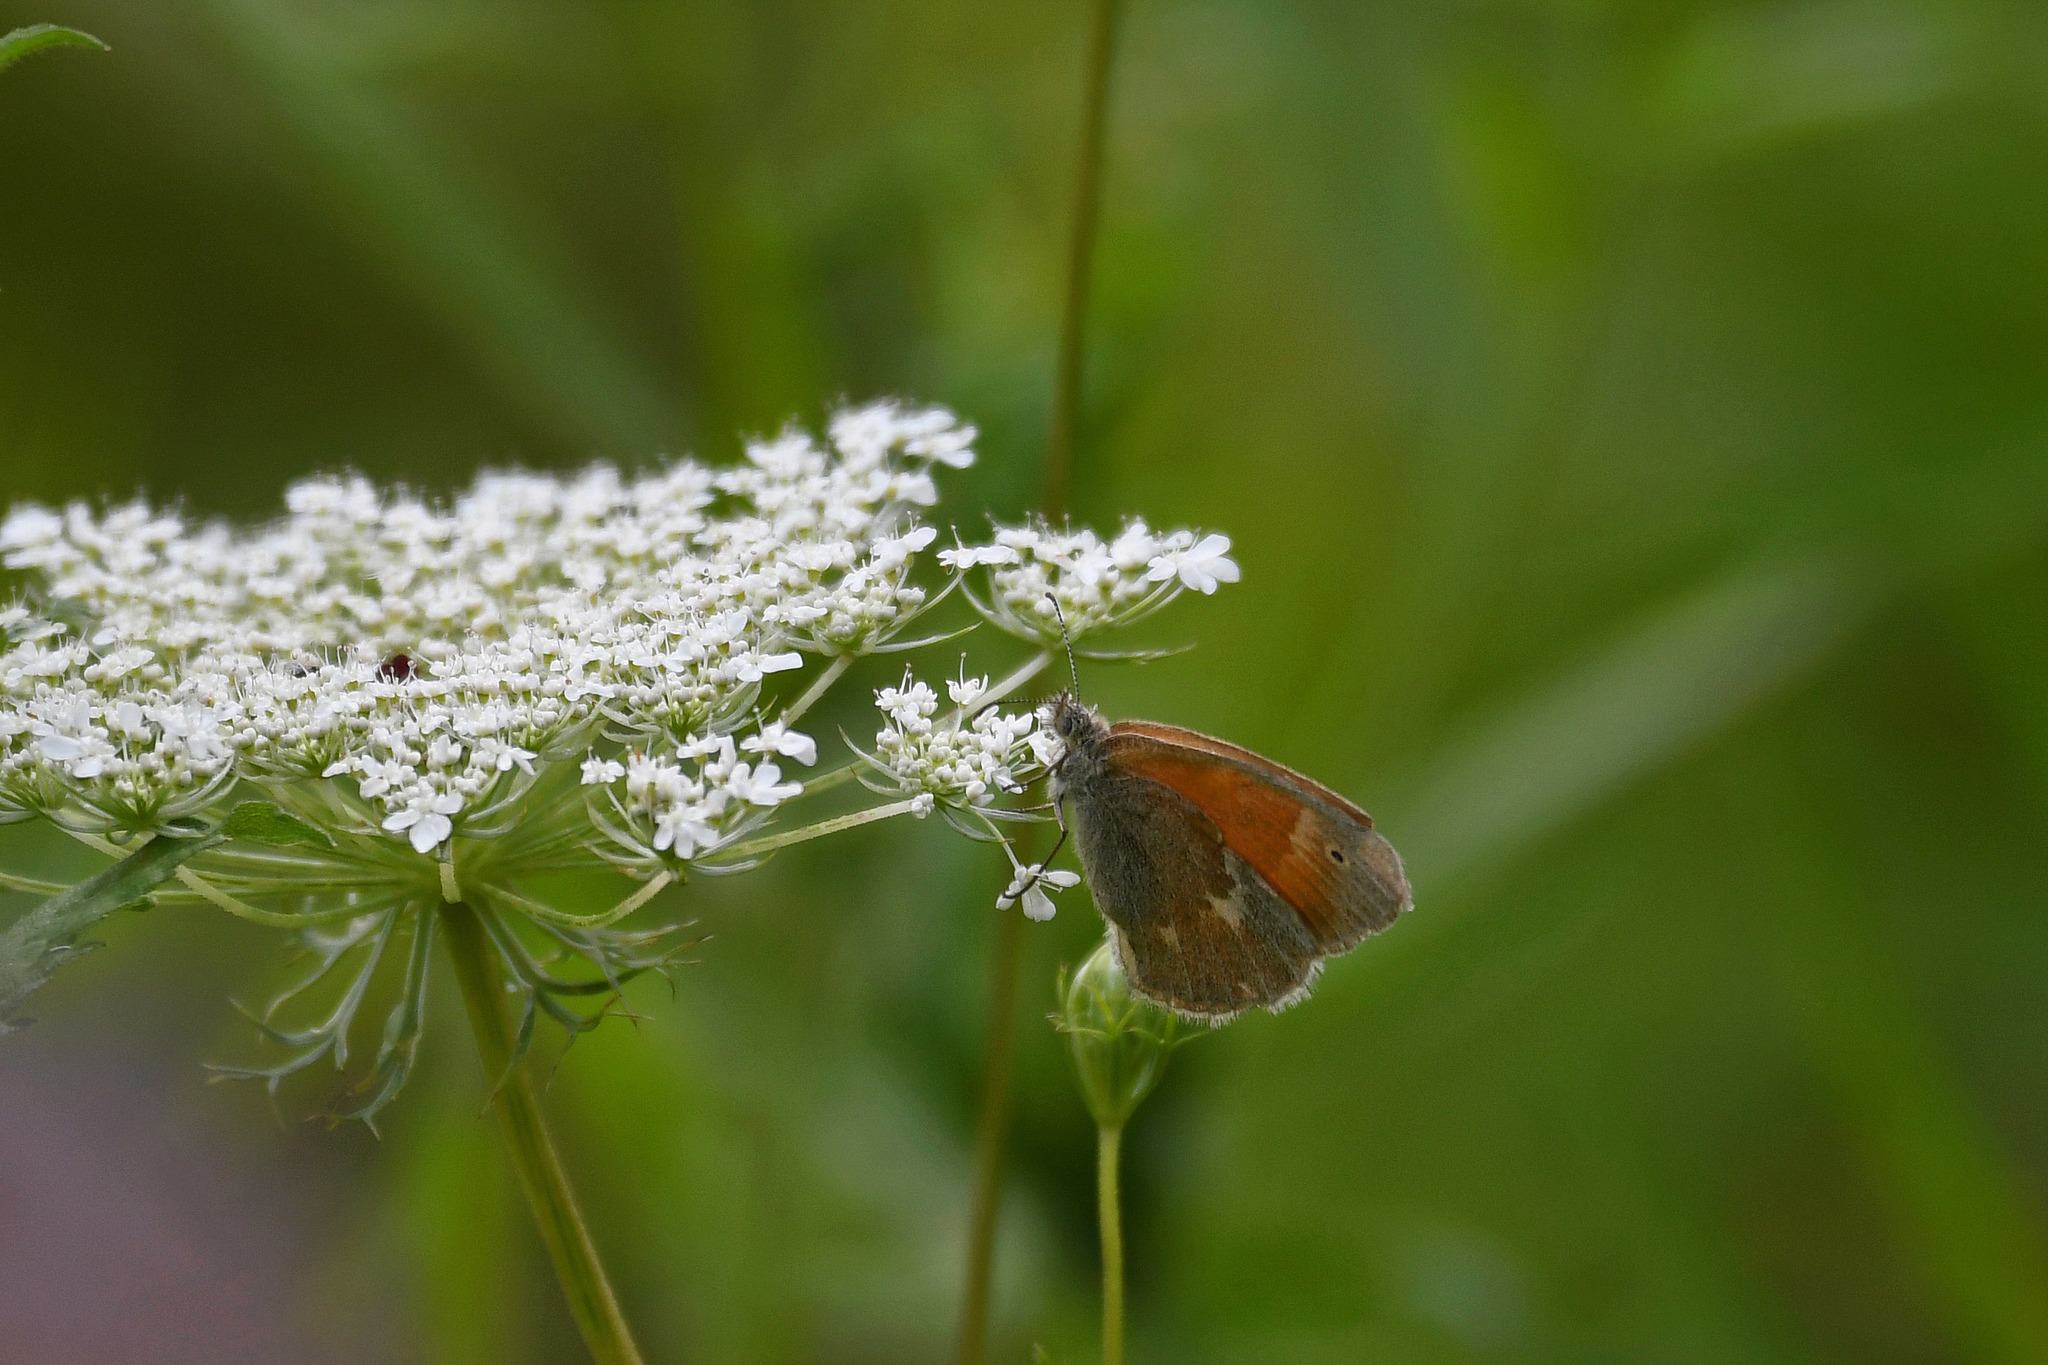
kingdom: Animalia
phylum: Arthropoda
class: Insecta
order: Lepidoptera
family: Nymphalidae
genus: Coenonympha
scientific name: Coenonympha california
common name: Common ringlet
